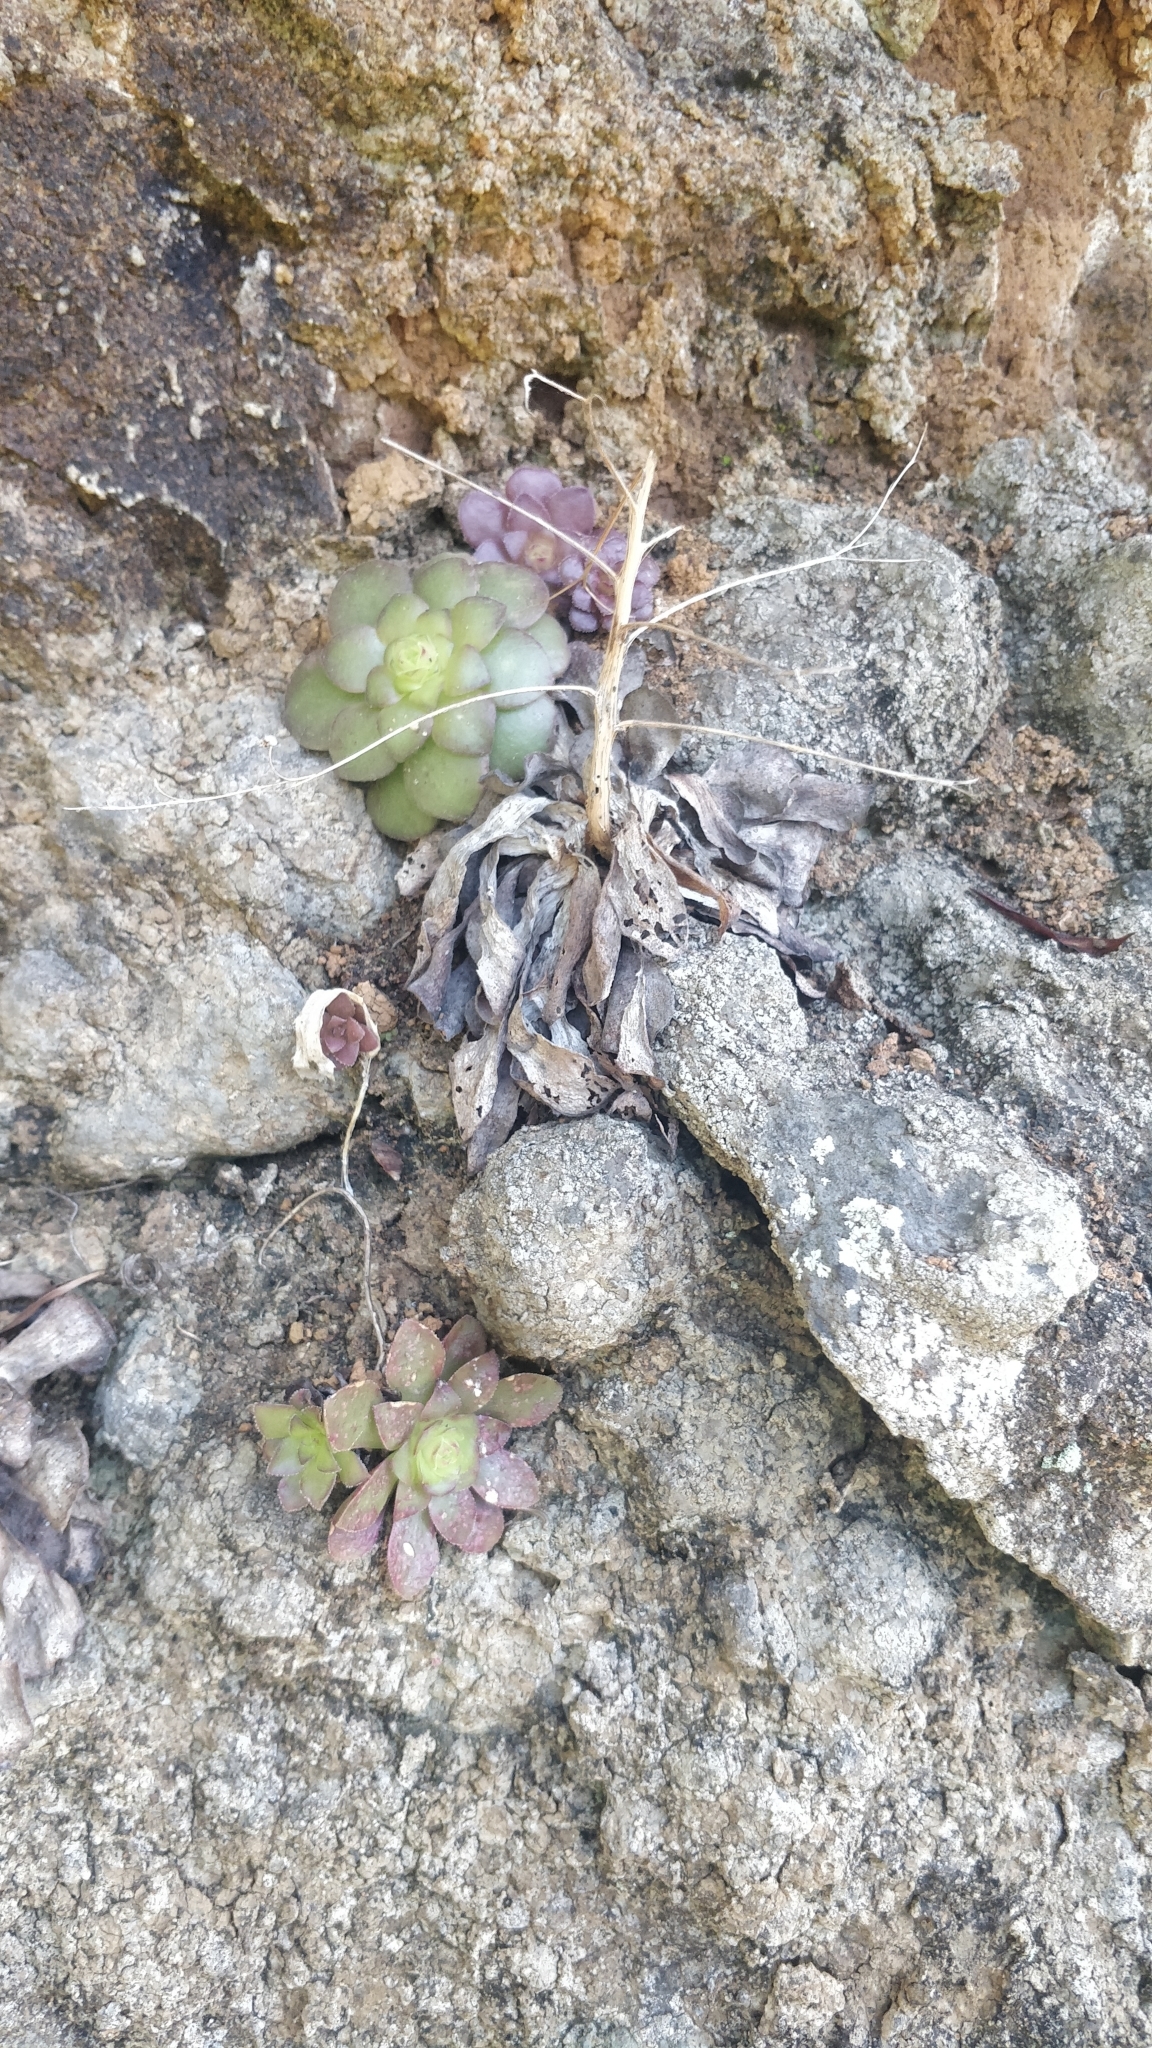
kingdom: Plantae
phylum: Tracheophyta
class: Magnoliopsida
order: Saxifragales
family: Crassulaceae
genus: Aeonium
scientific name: Aeonium glandulosum
